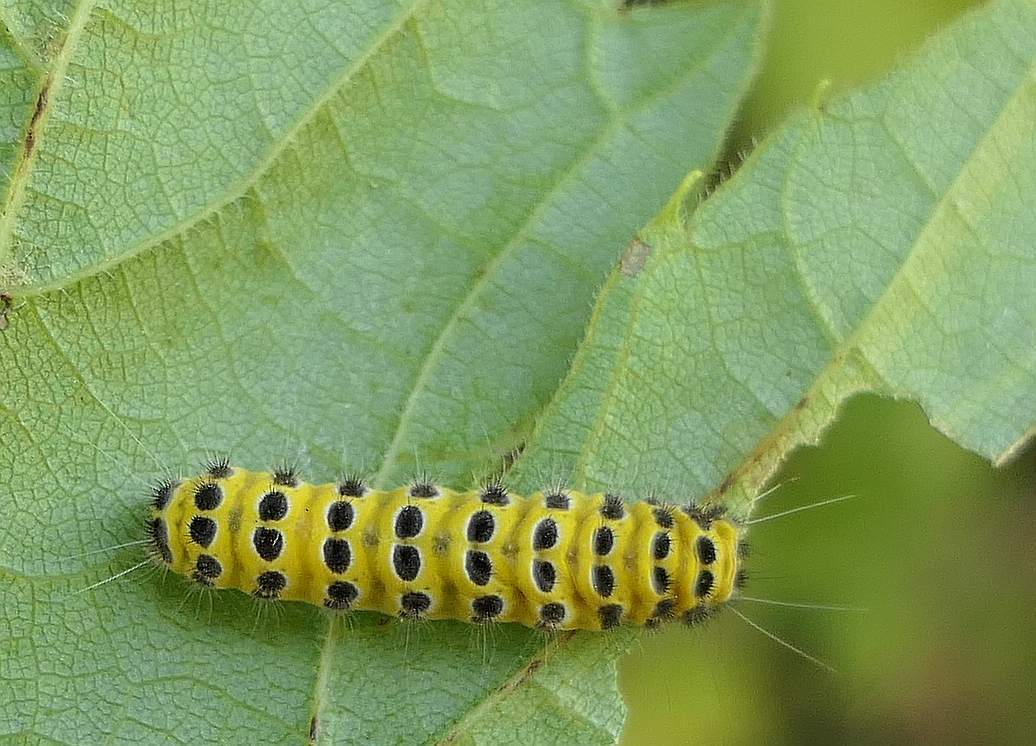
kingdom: Animalia
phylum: Arthropoda
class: Insecta
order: Lepidoptera
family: Zygaenidae
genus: Harrisina
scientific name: Harrisina americana
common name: Grapeleaf skeletonizer moth
